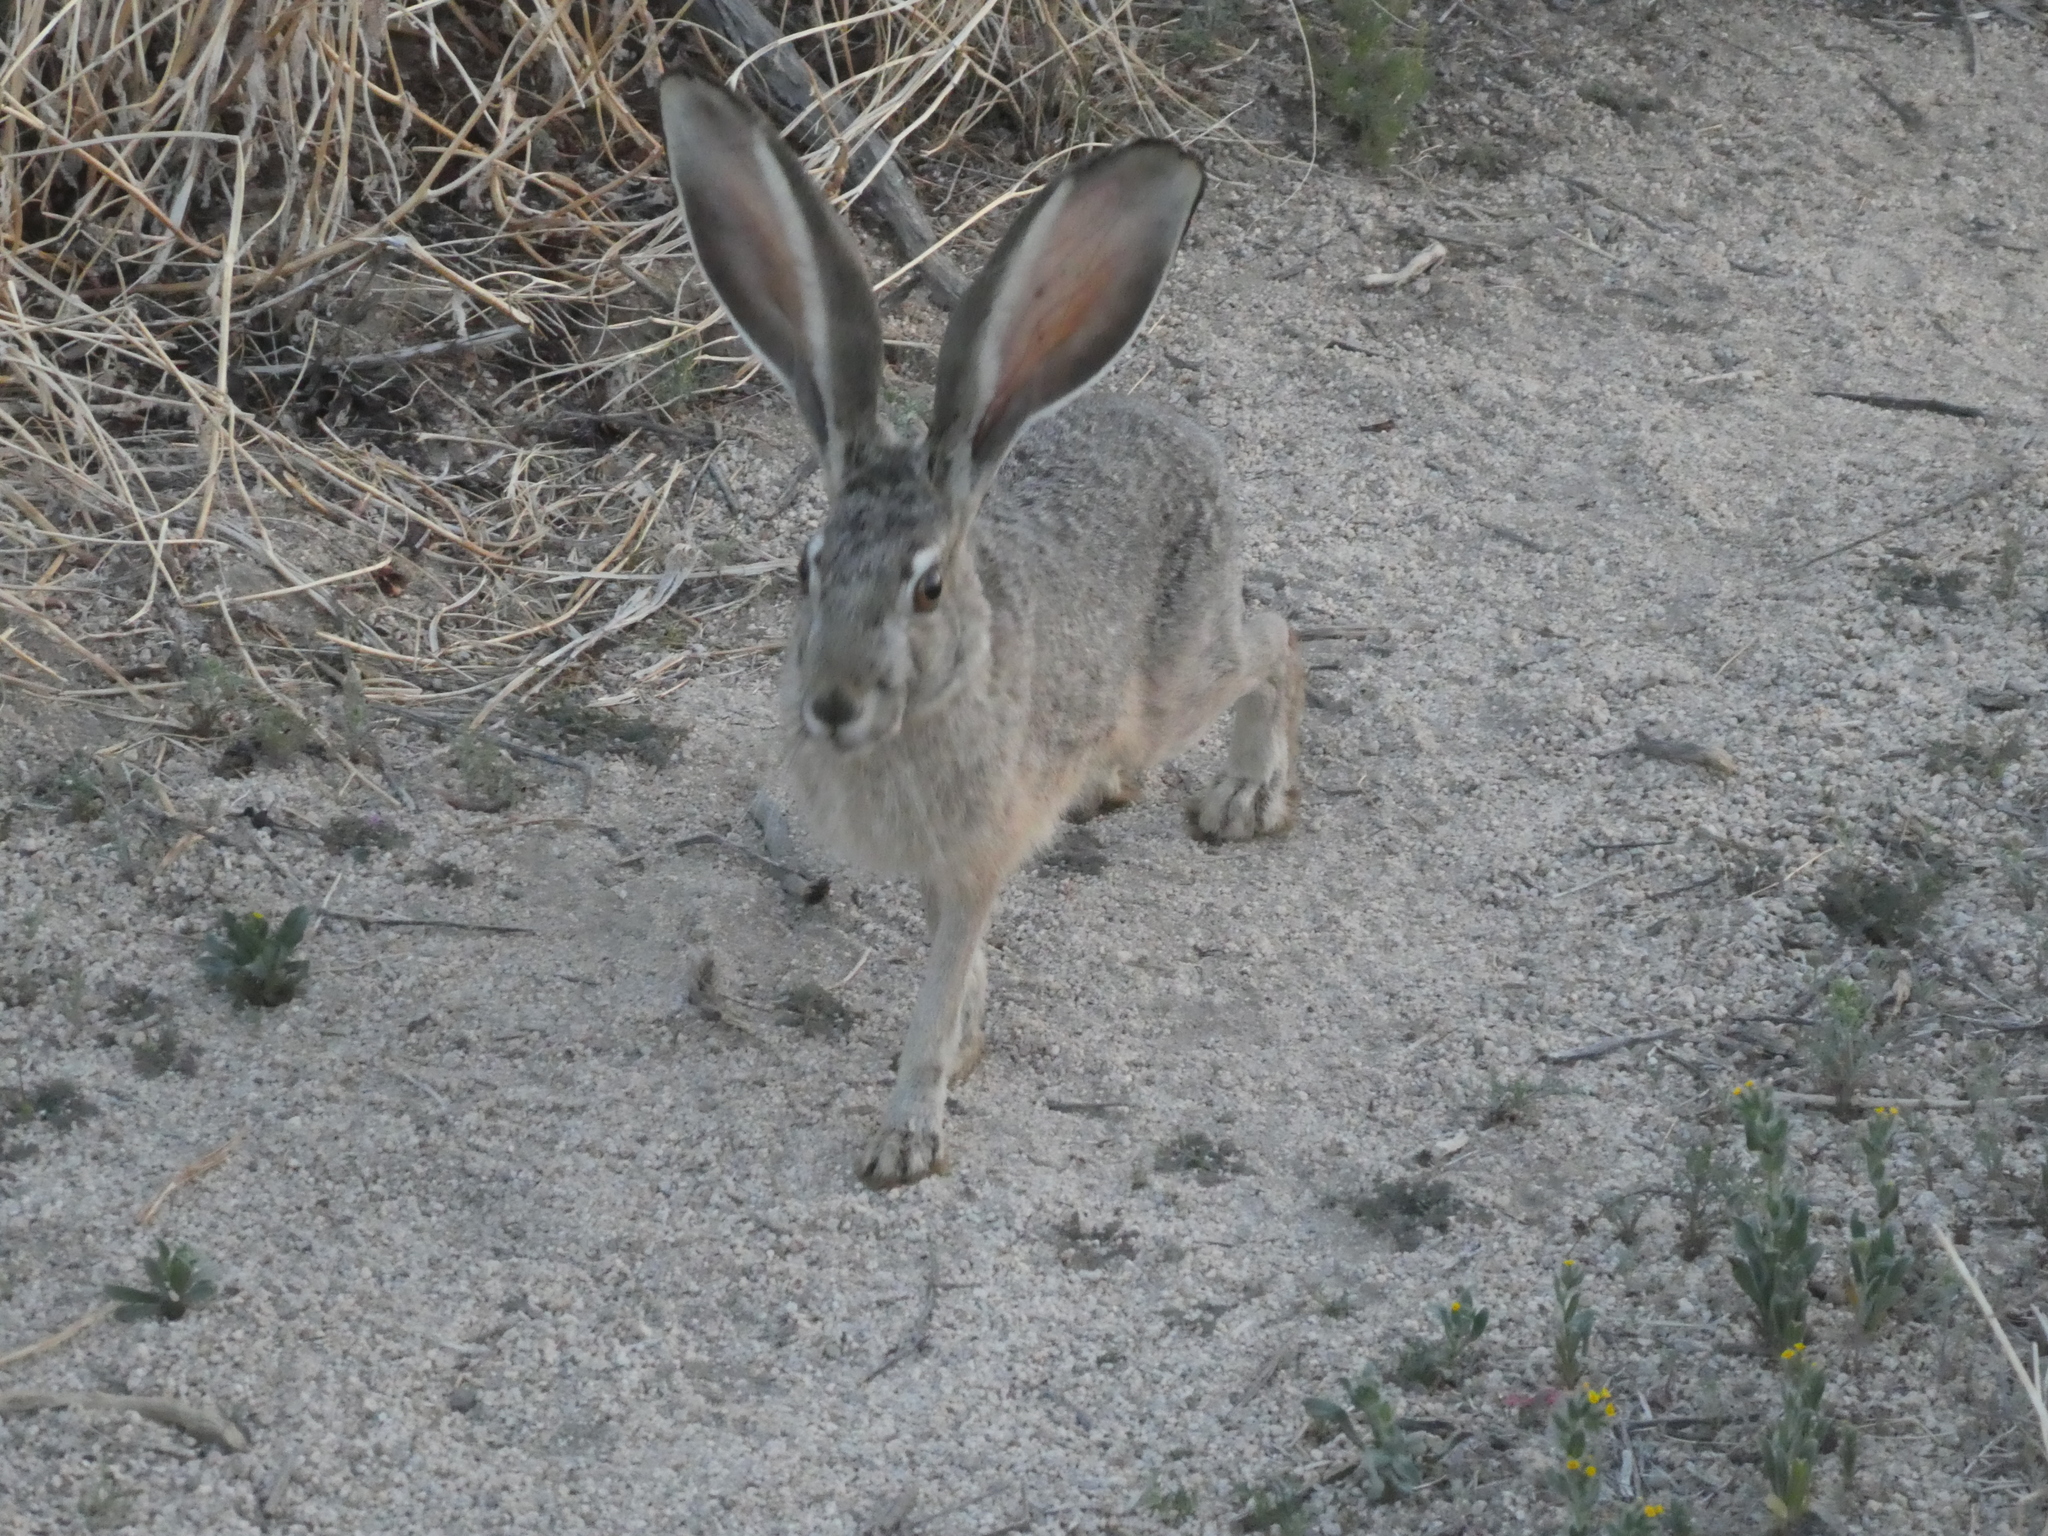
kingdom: Animalia
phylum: Chordata
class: Mammalia
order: Lagomorpha
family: Leporidae
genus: Lepus
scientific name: Lepus californicus
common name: Black-tailed jackrabbit
